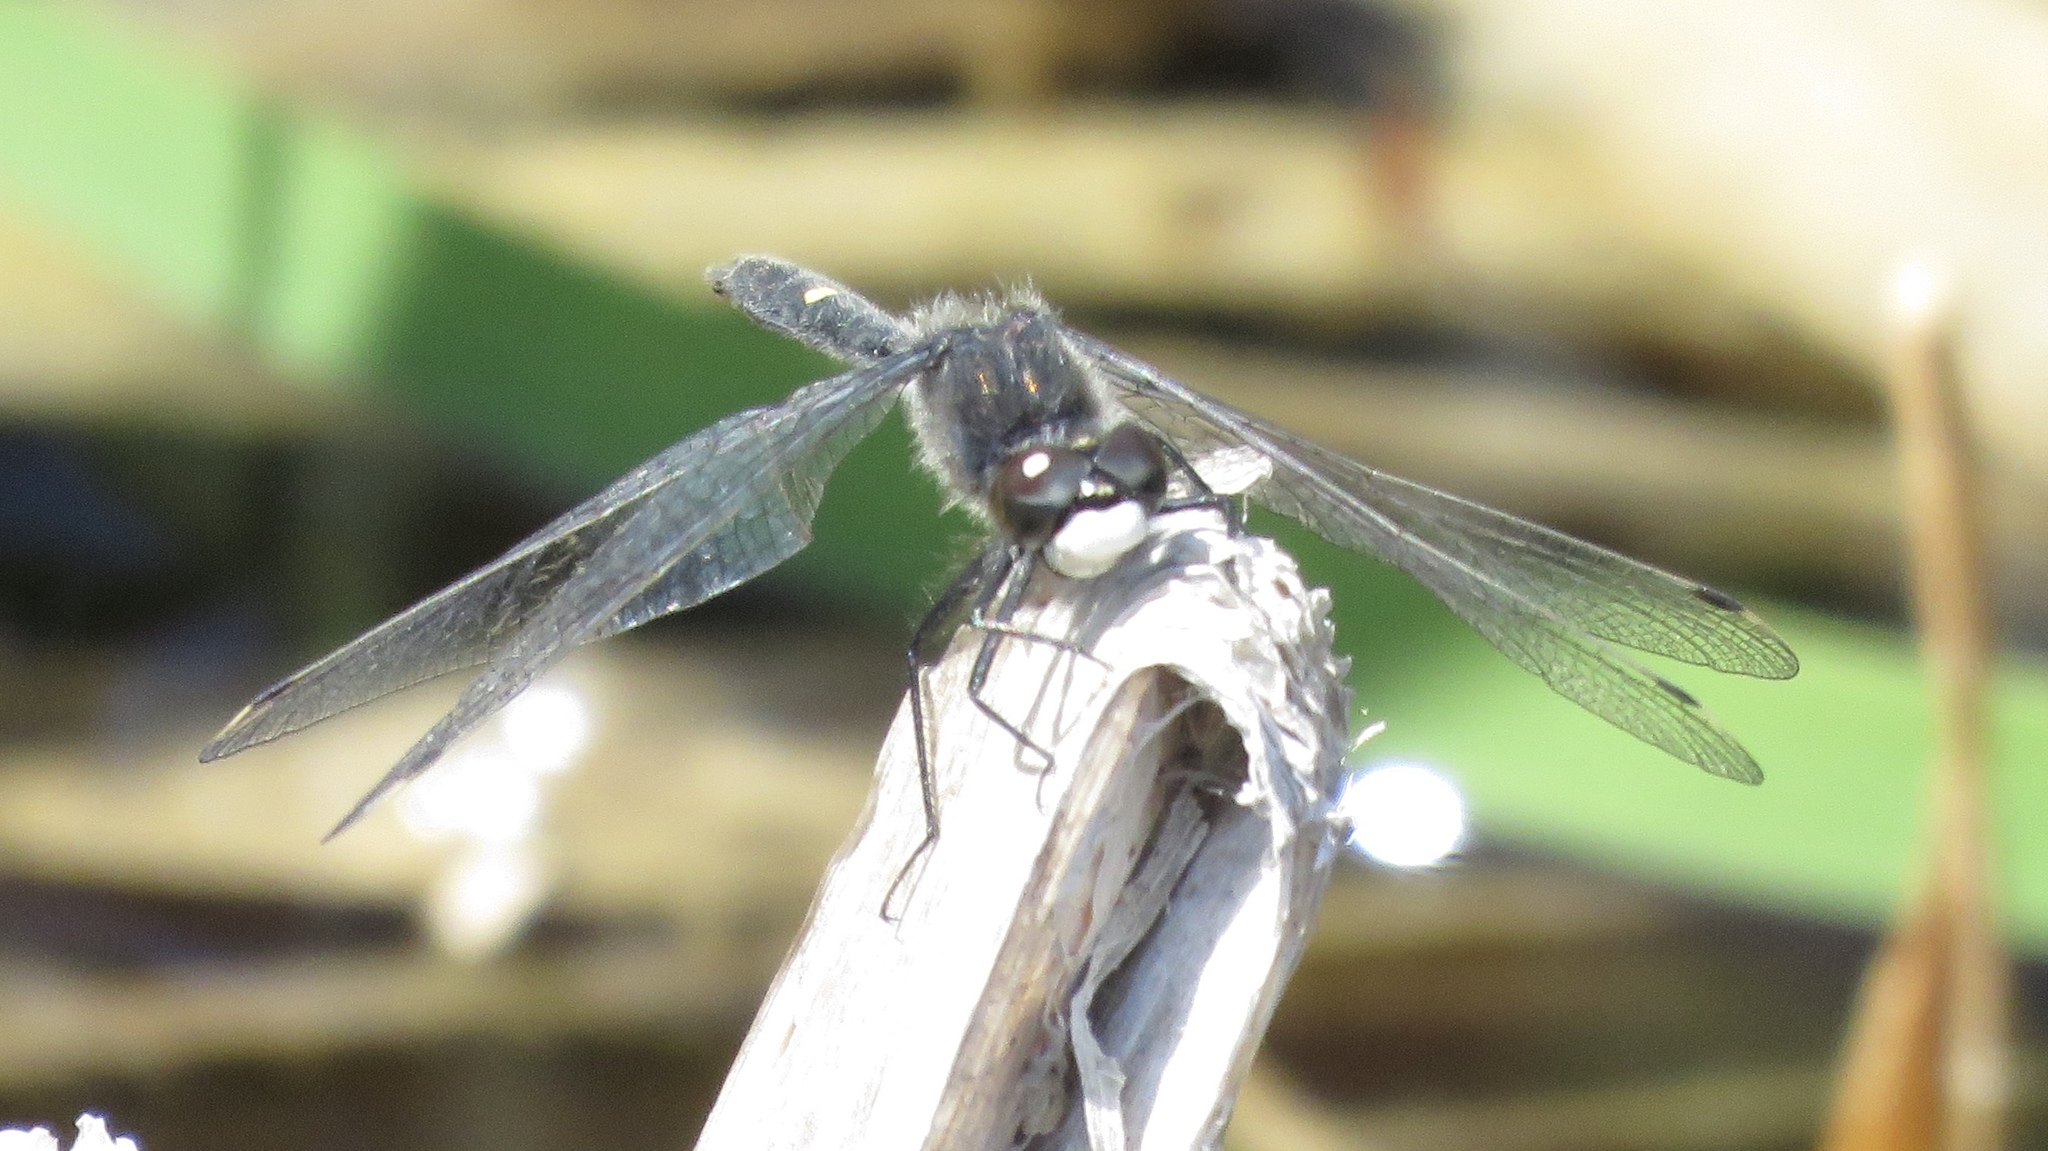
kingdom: Animalia
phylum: Arthropoda
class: Insecta
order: Odonata
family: Libellulidae
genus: Leucorrhinia
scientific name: Leucorrhinia intacta
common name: Dot-tailed whiteface
